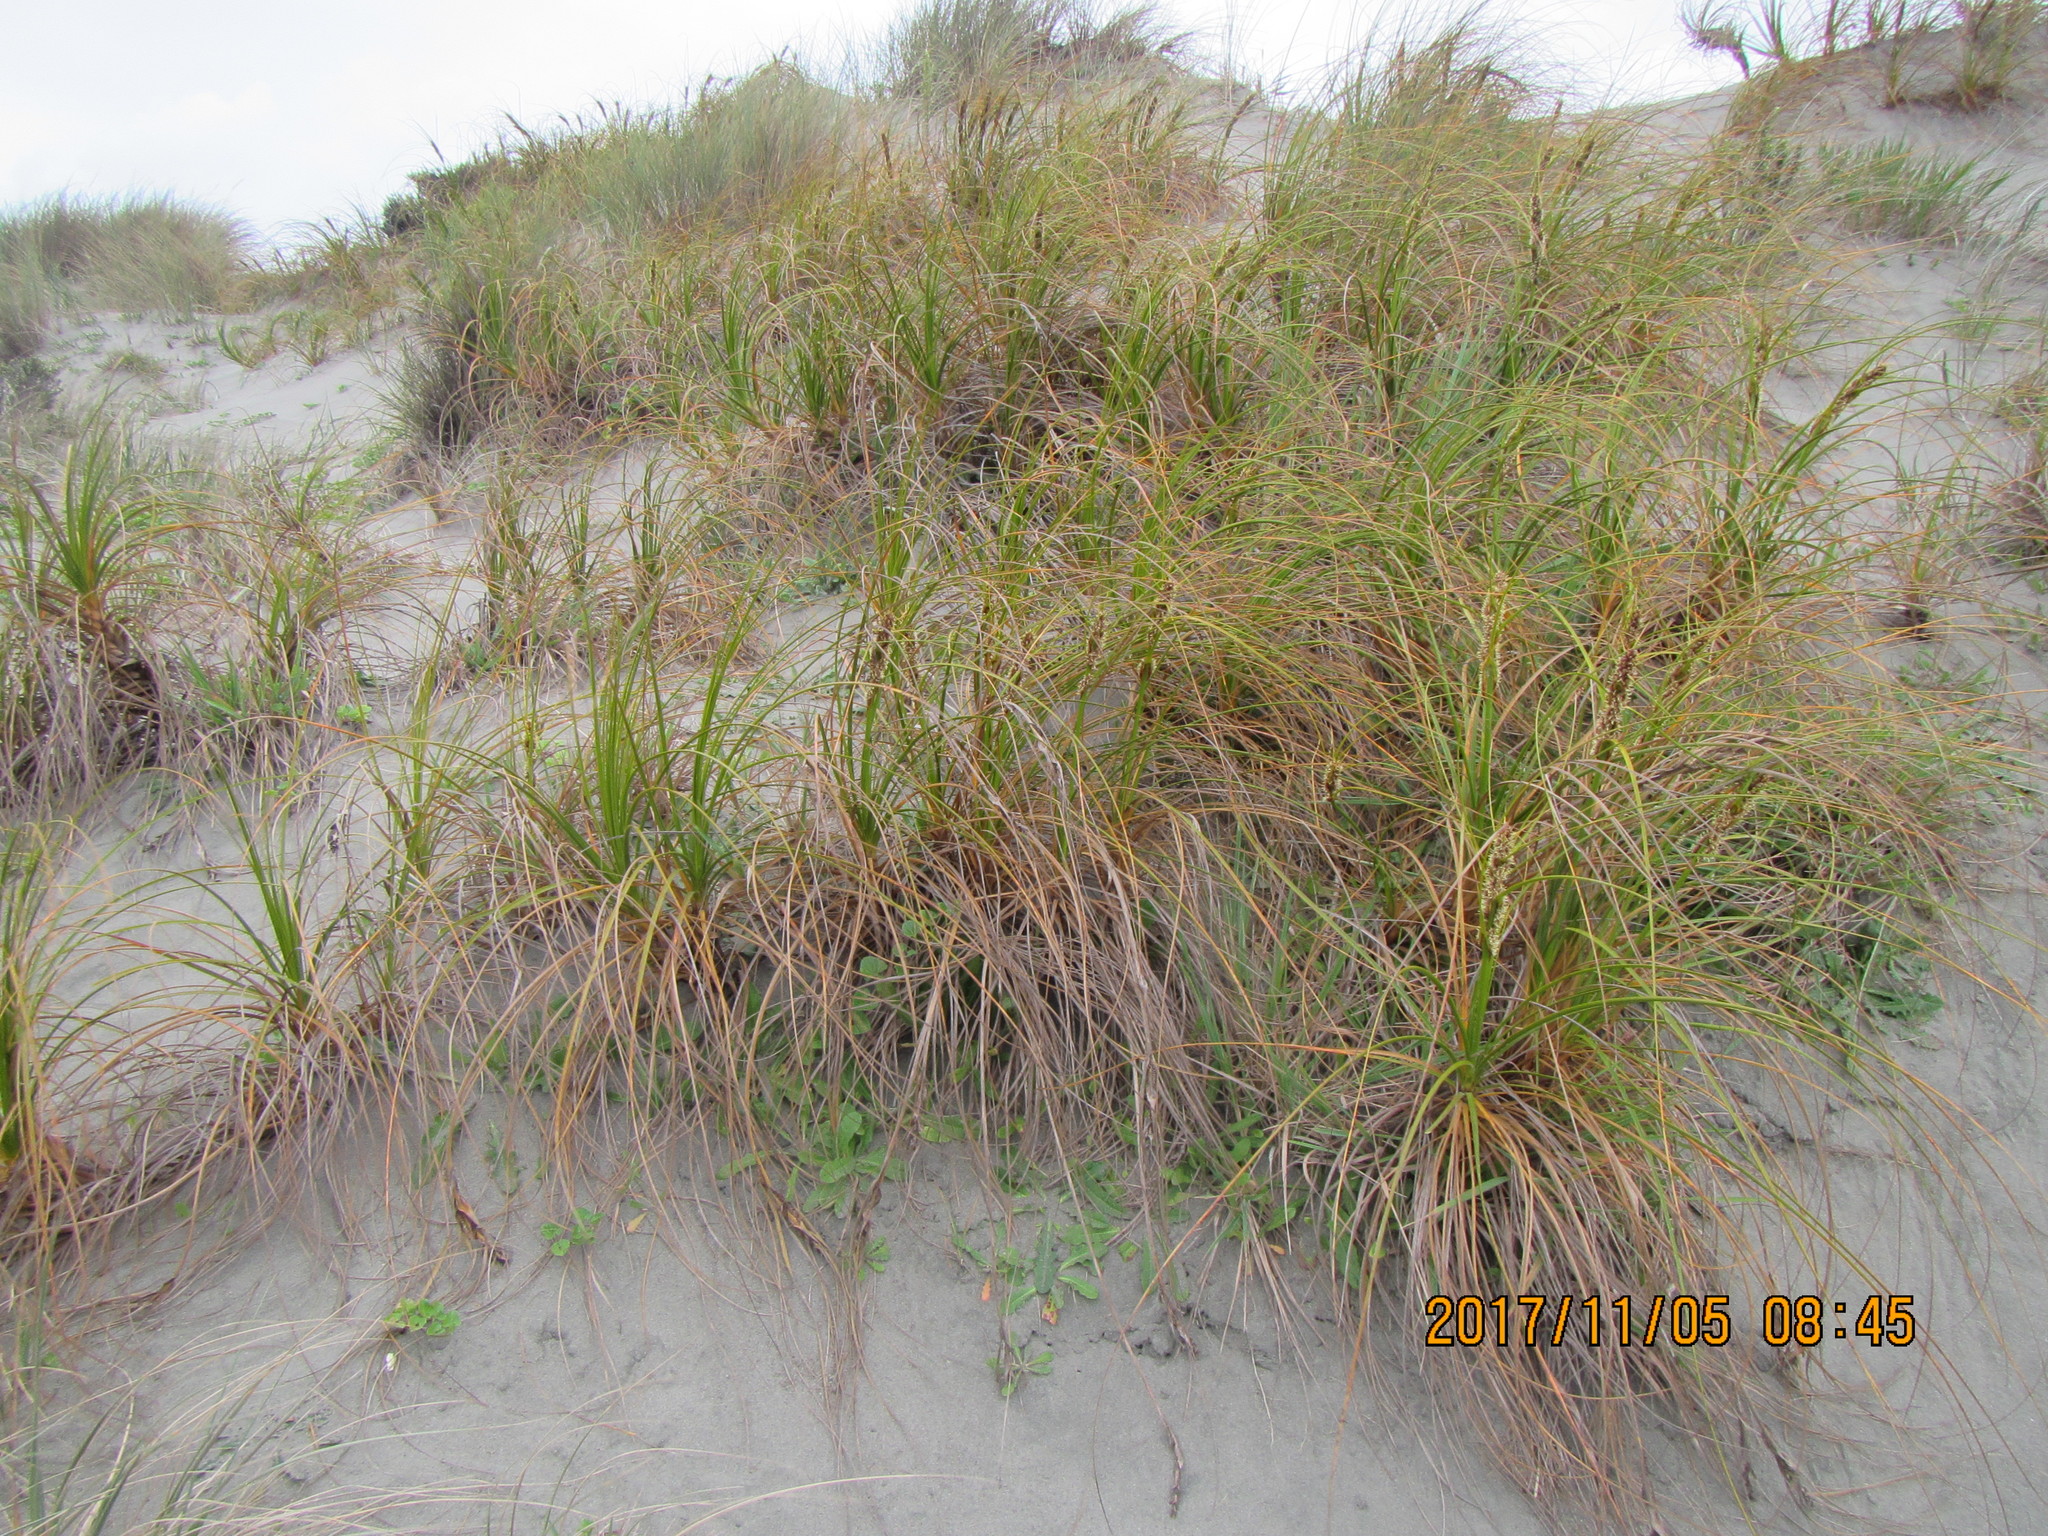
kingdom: Plantae
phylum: Tracheophyta
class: Liliopsida
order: Poales
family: Cyperaceae
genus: Ficinia
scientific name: Ficinia spiralis
